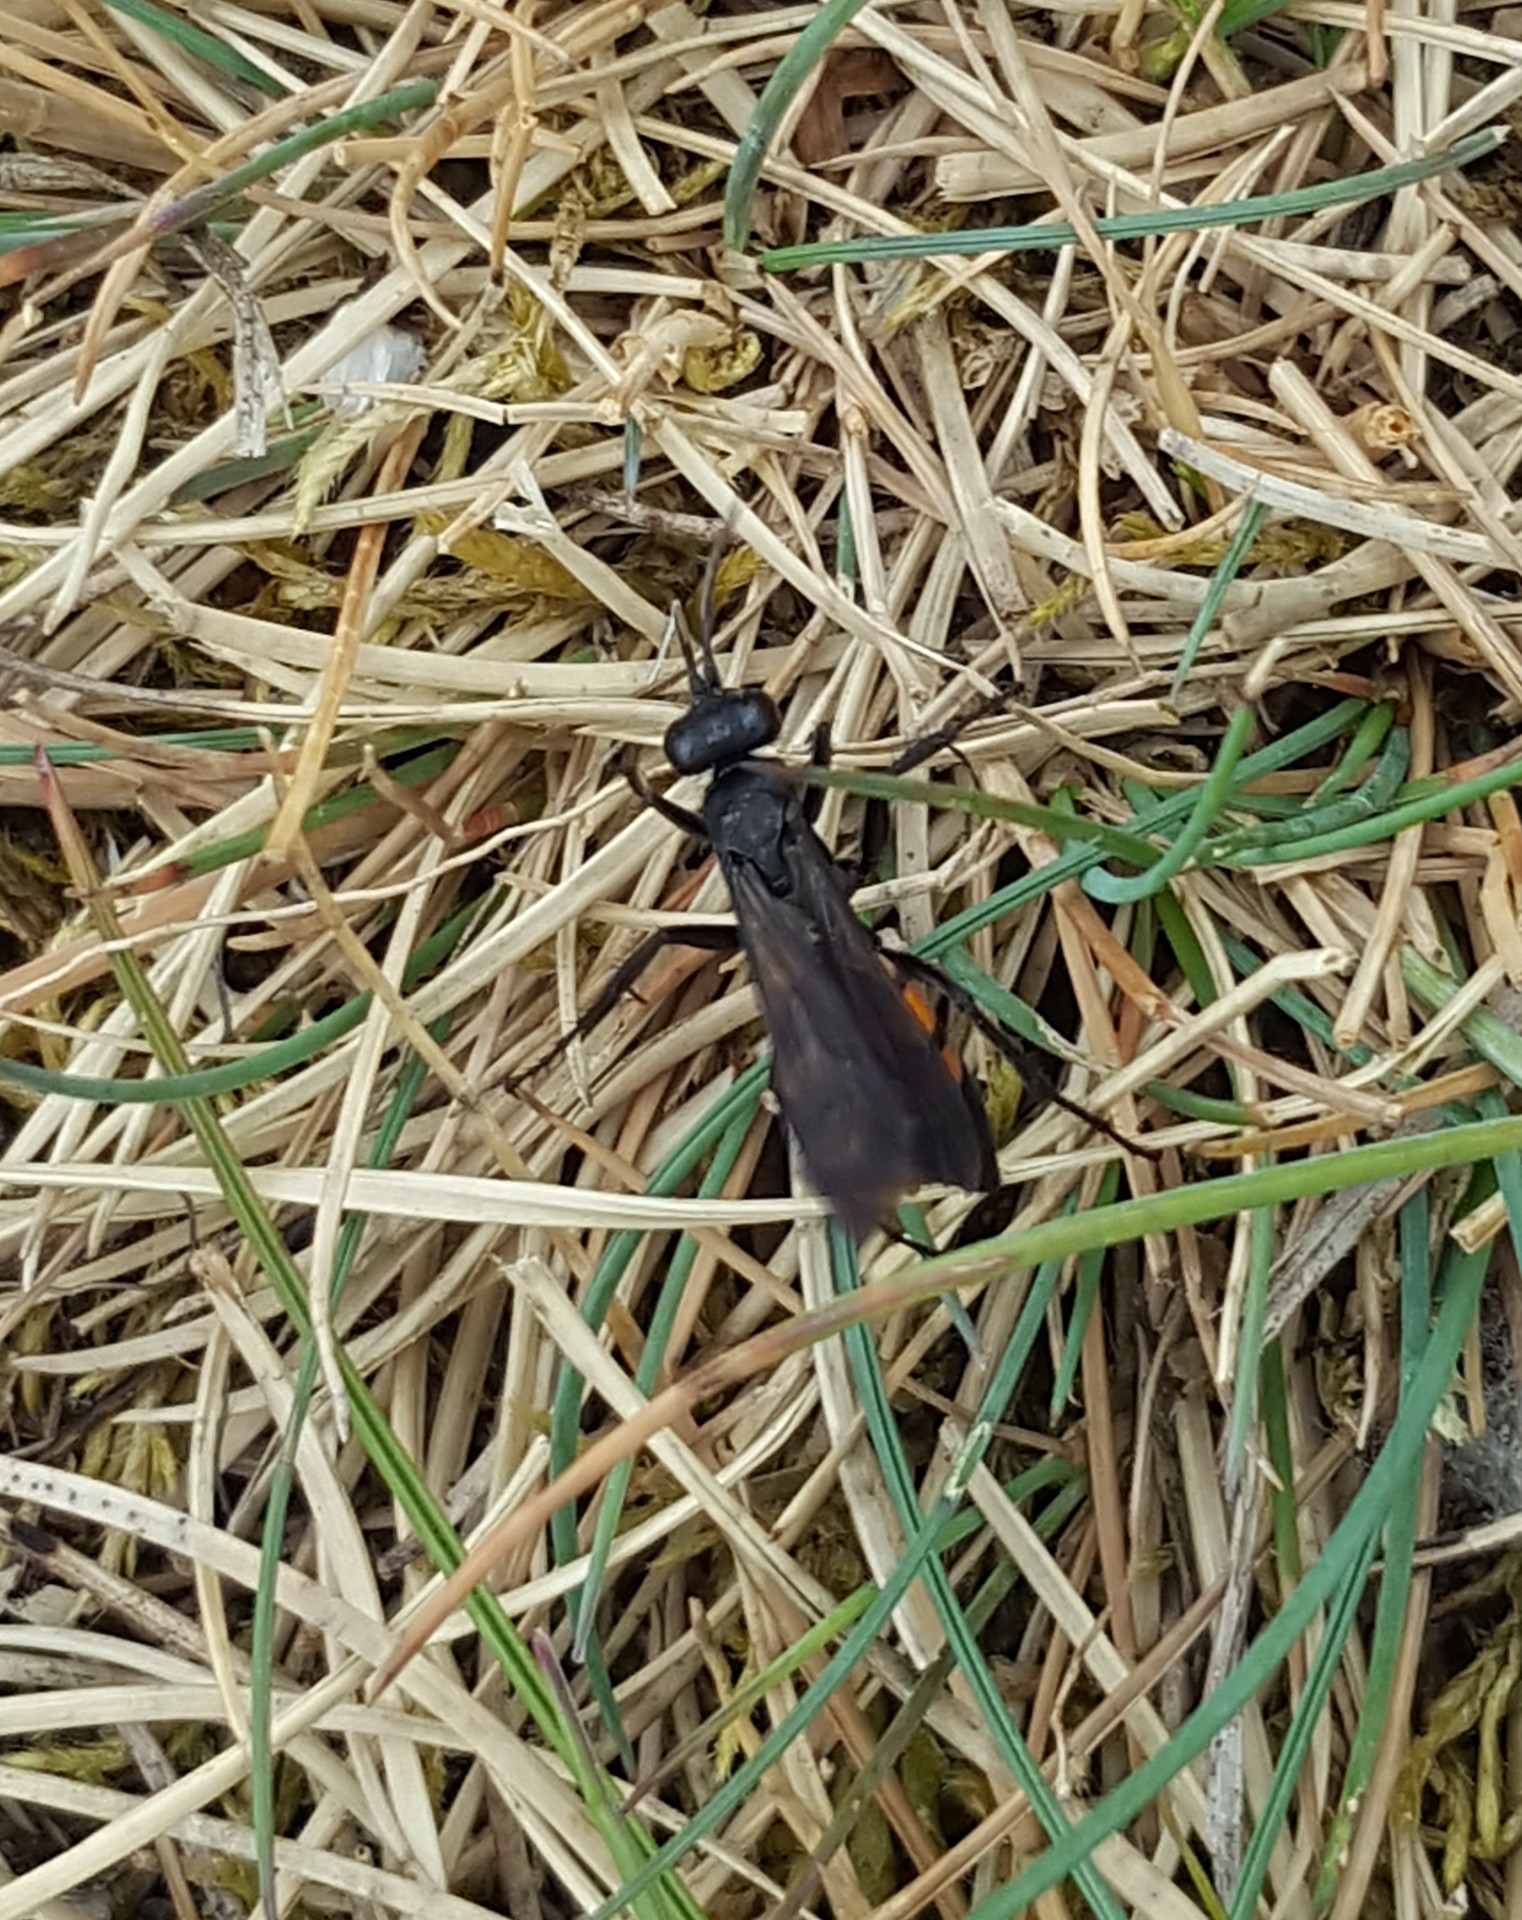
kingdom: Animalia
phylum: Arthropoda
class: Insecta
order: Hymenoptera
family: Pompilidae
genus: Anoplius
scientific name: Anoplius viaticus
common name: Black banded spider wasp
